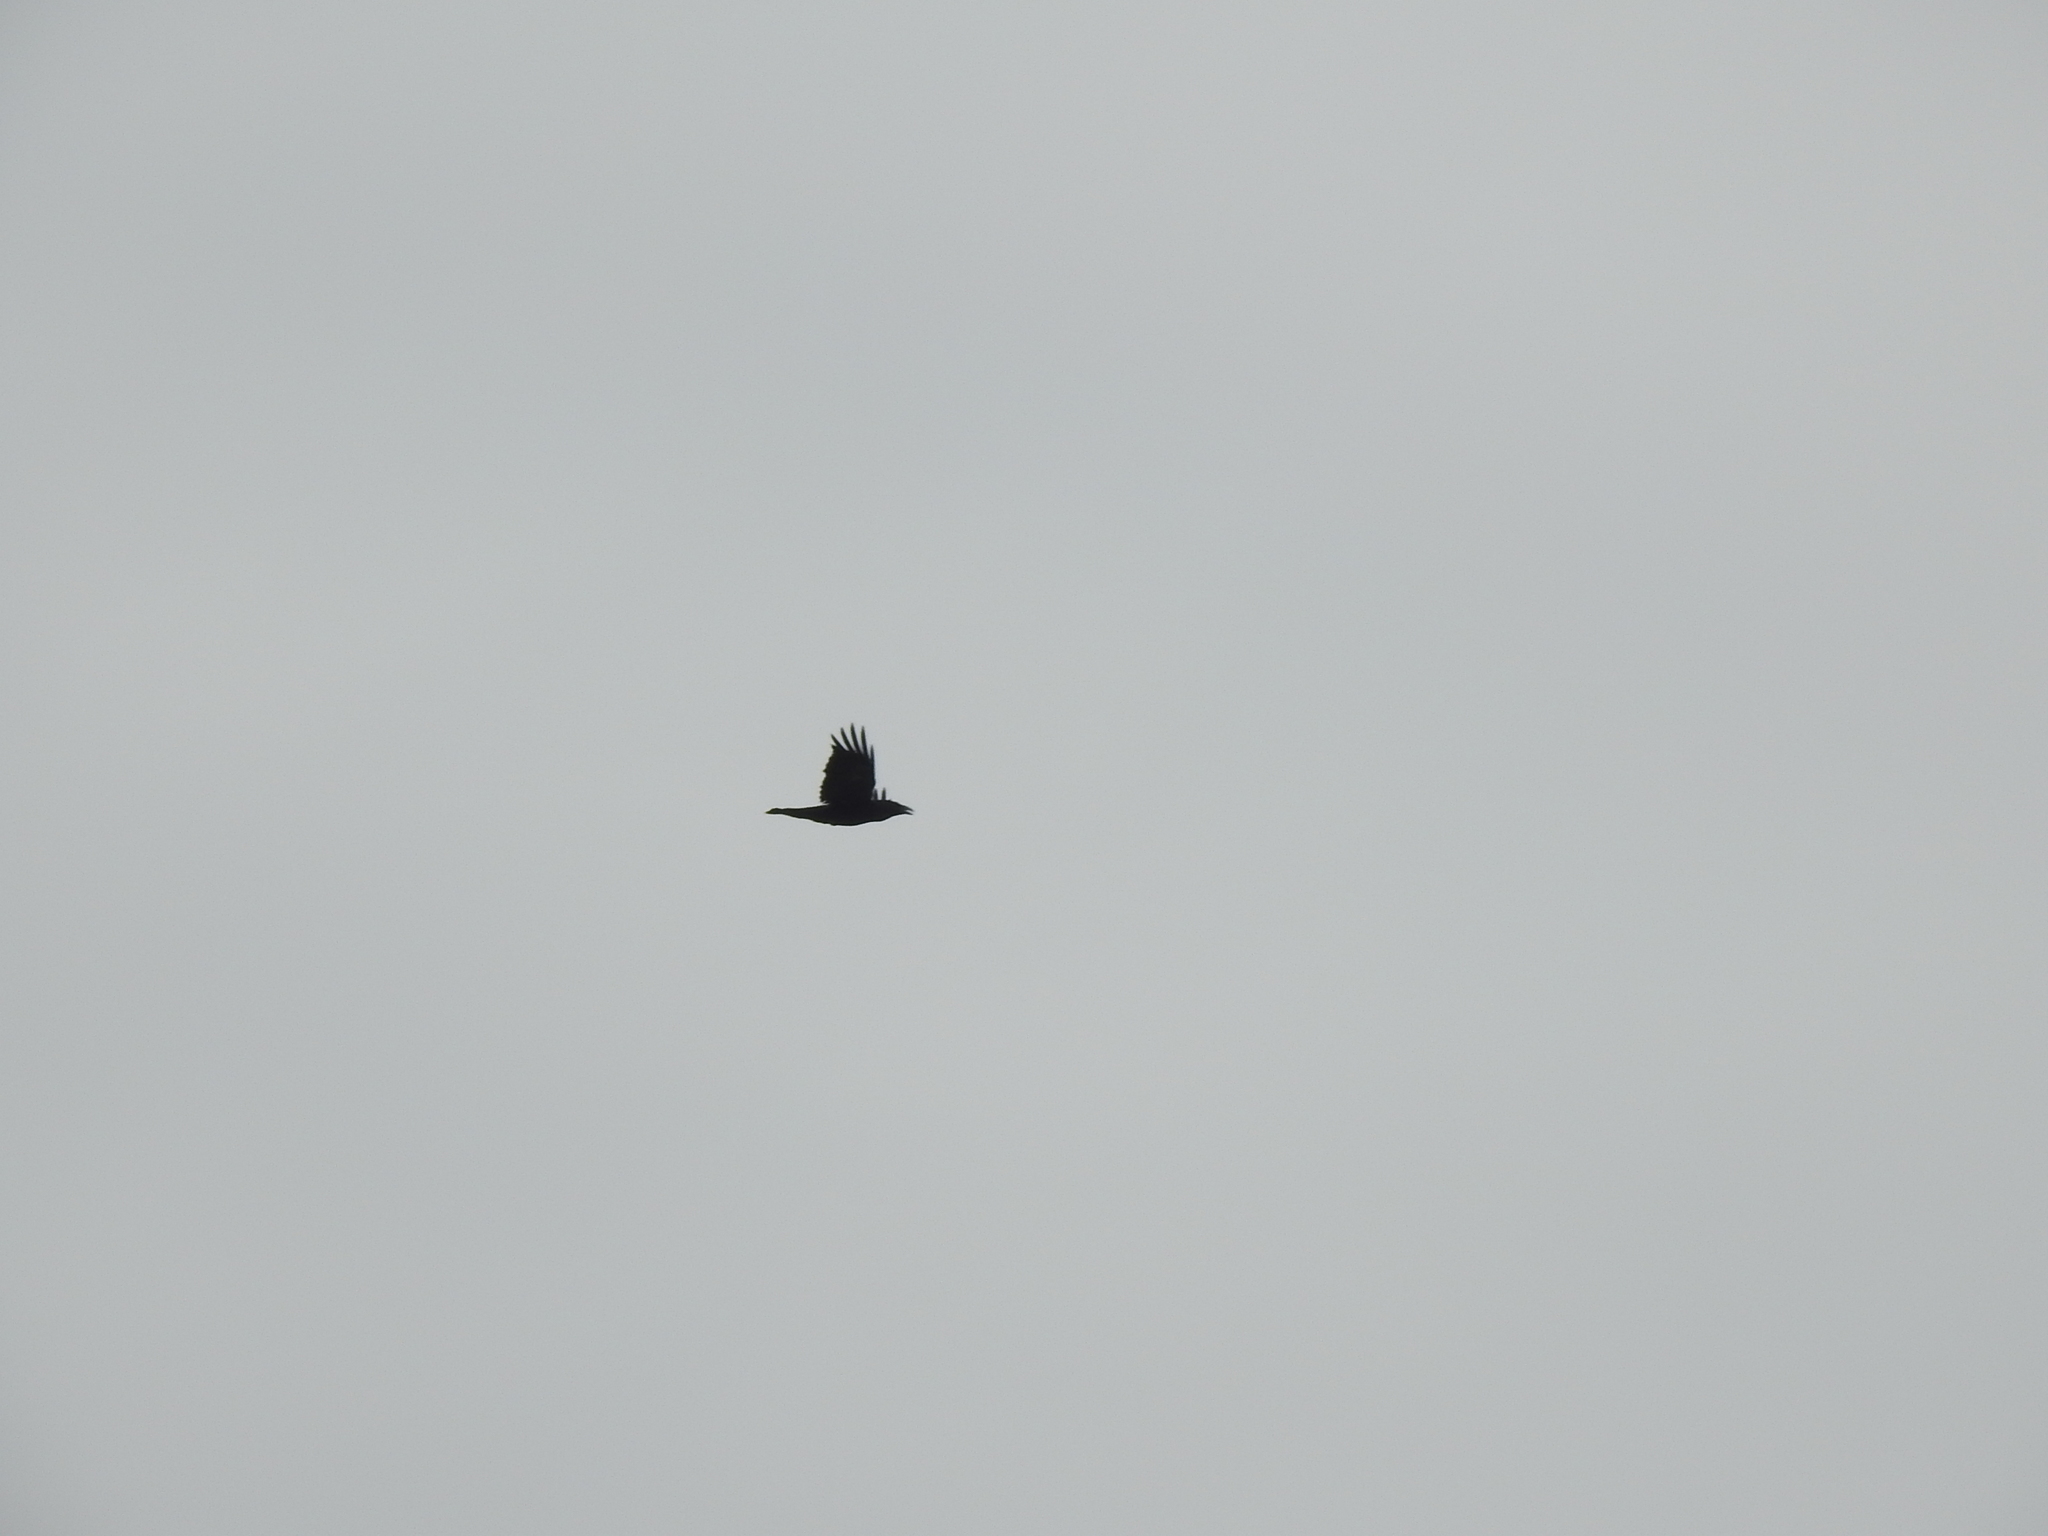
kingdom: Animalia
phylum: Chordata
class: Aves
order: Passeriformes
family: Corvidae
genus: Corvus
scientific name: Corvus corax
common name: Common raven
